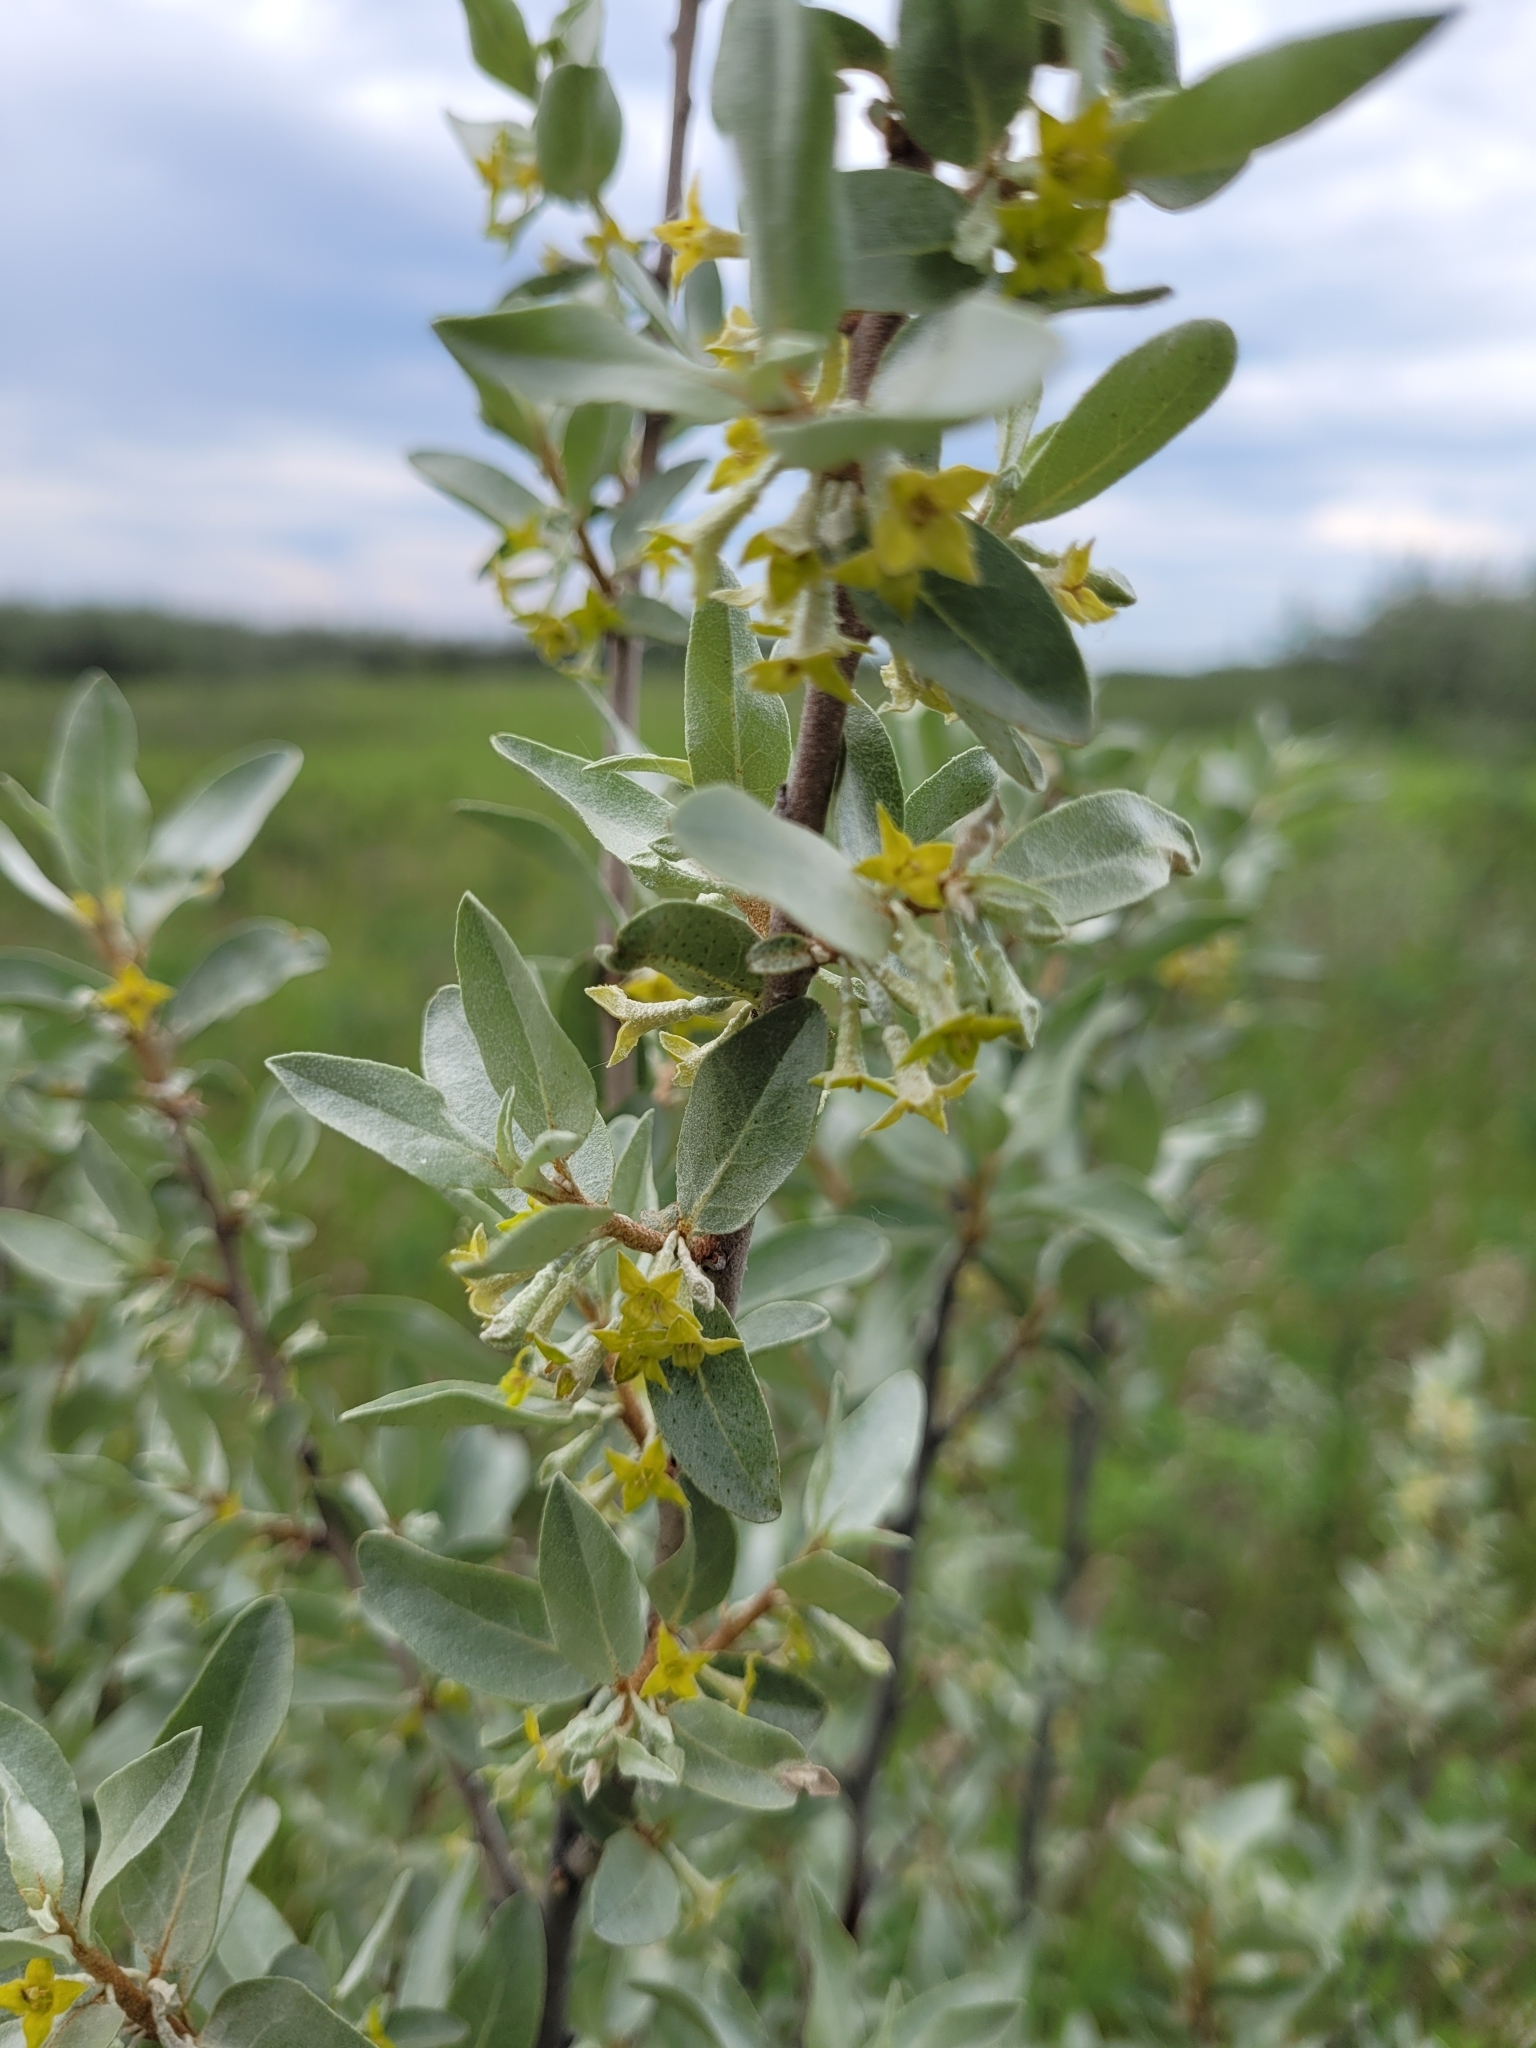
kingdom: Plantae
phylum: Tracheophyta
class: Magnoliopsida
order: Rosales
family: Elaeagnaceae
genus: Elaeagnus
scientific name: Elaeagnus commutata
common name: Silverberry
